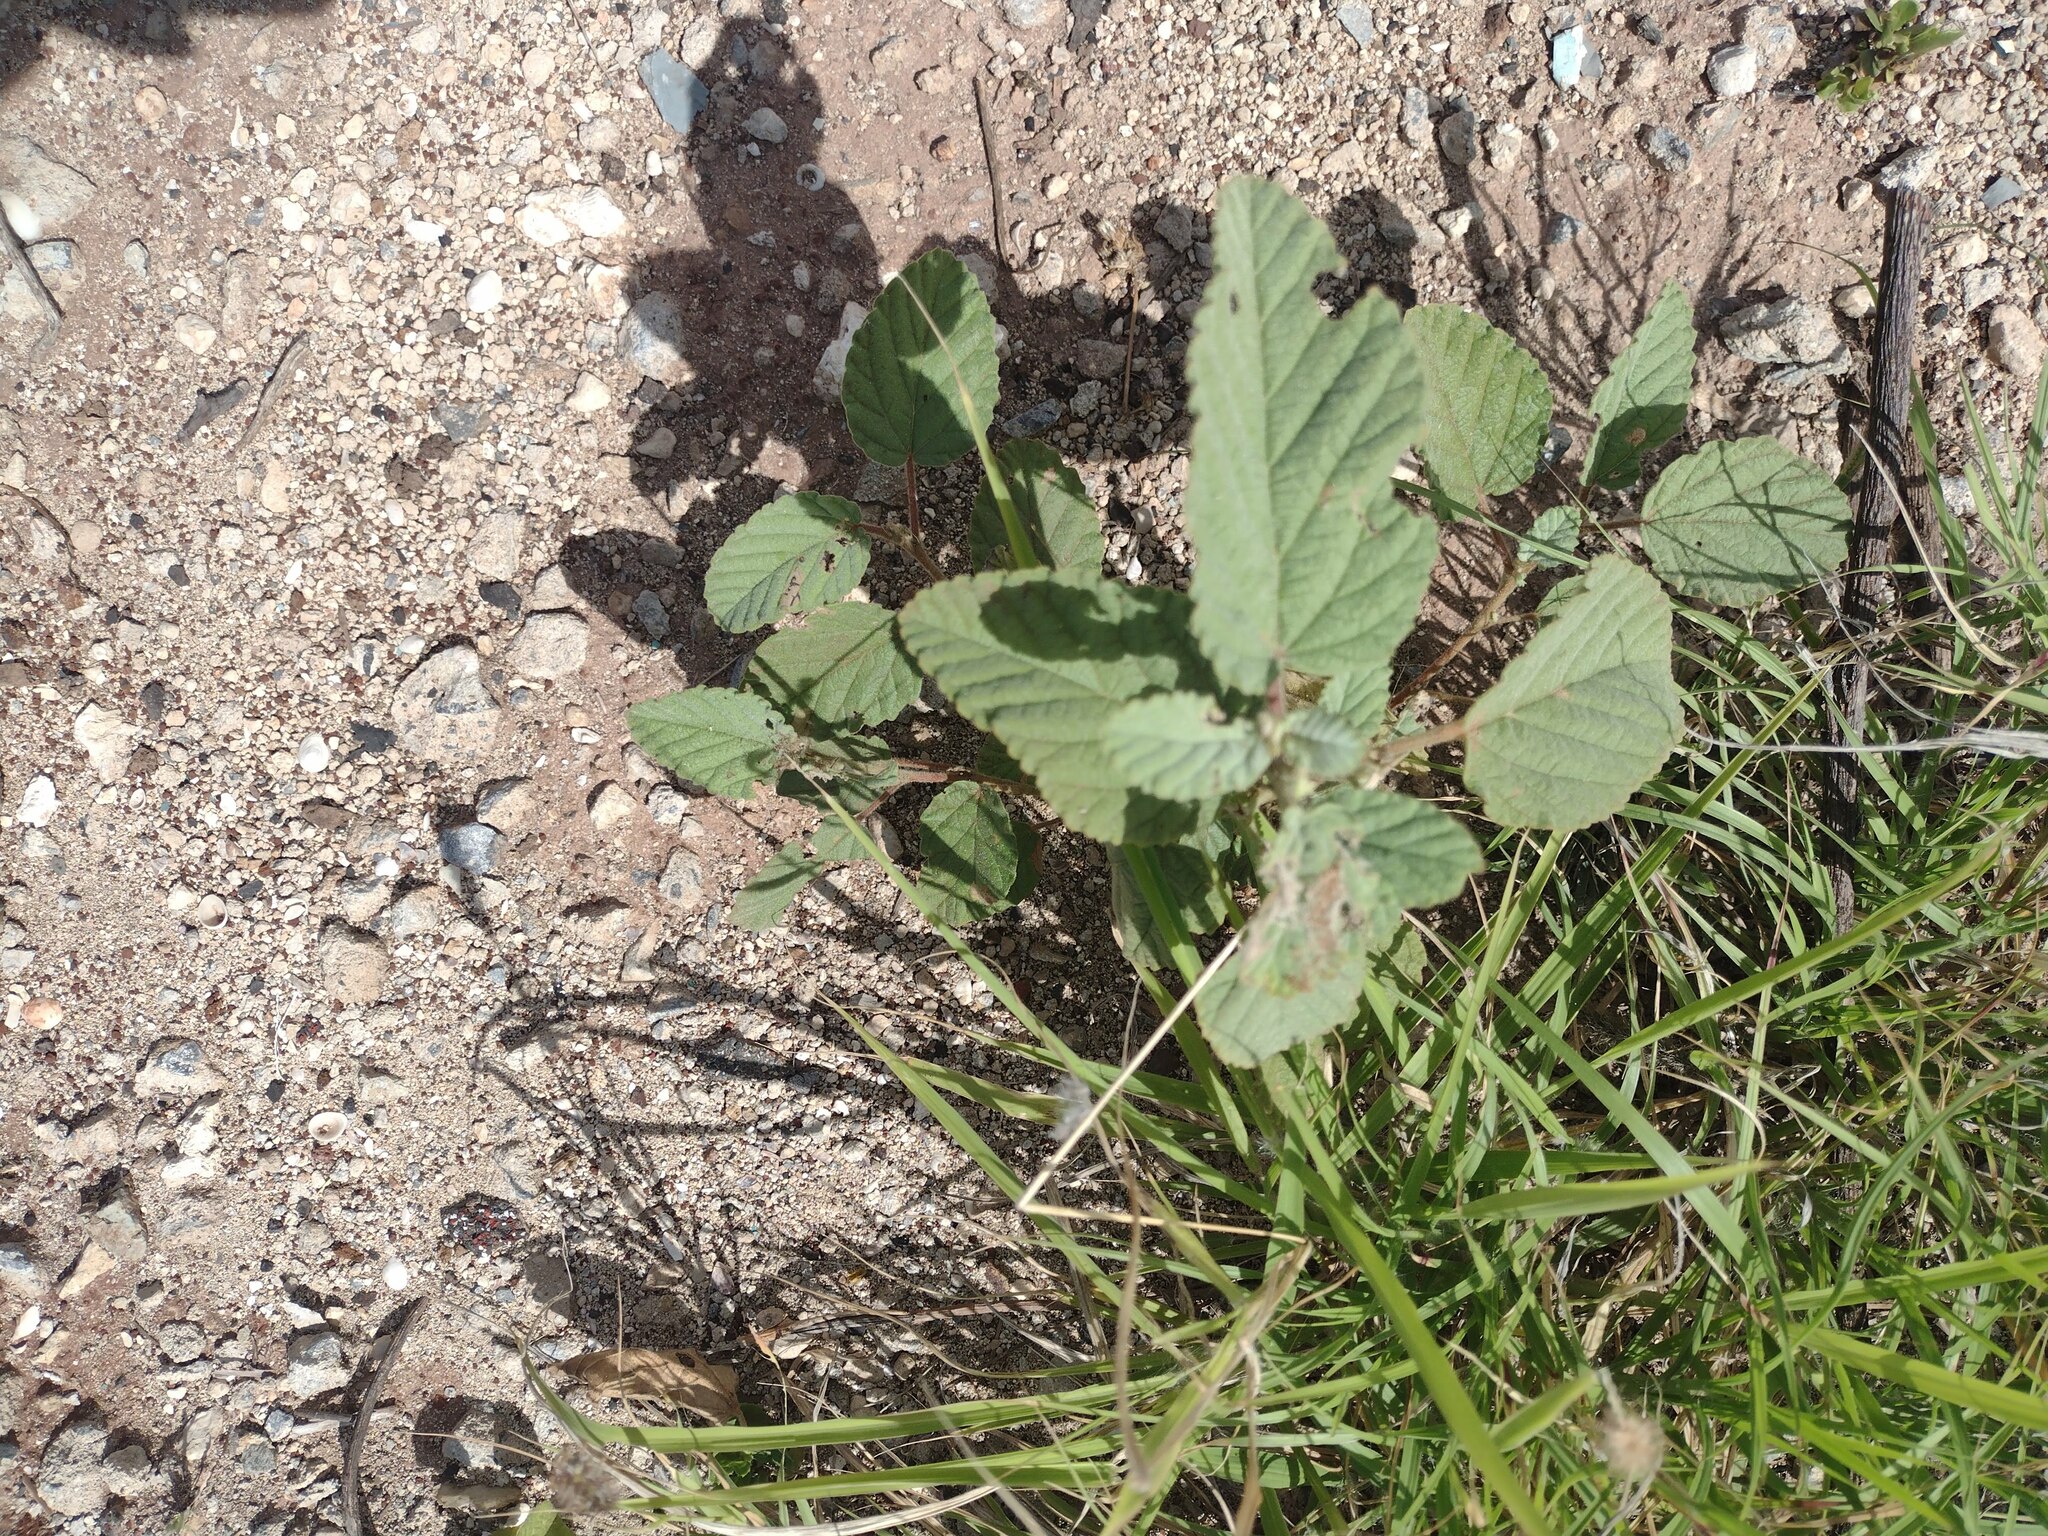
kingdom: Plantae
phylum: Tracheophyta
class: Magnoliopsida
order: Malvales
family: Malvaceae
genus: Waltheria
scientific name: Waltheria indica
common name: Leather-coat
